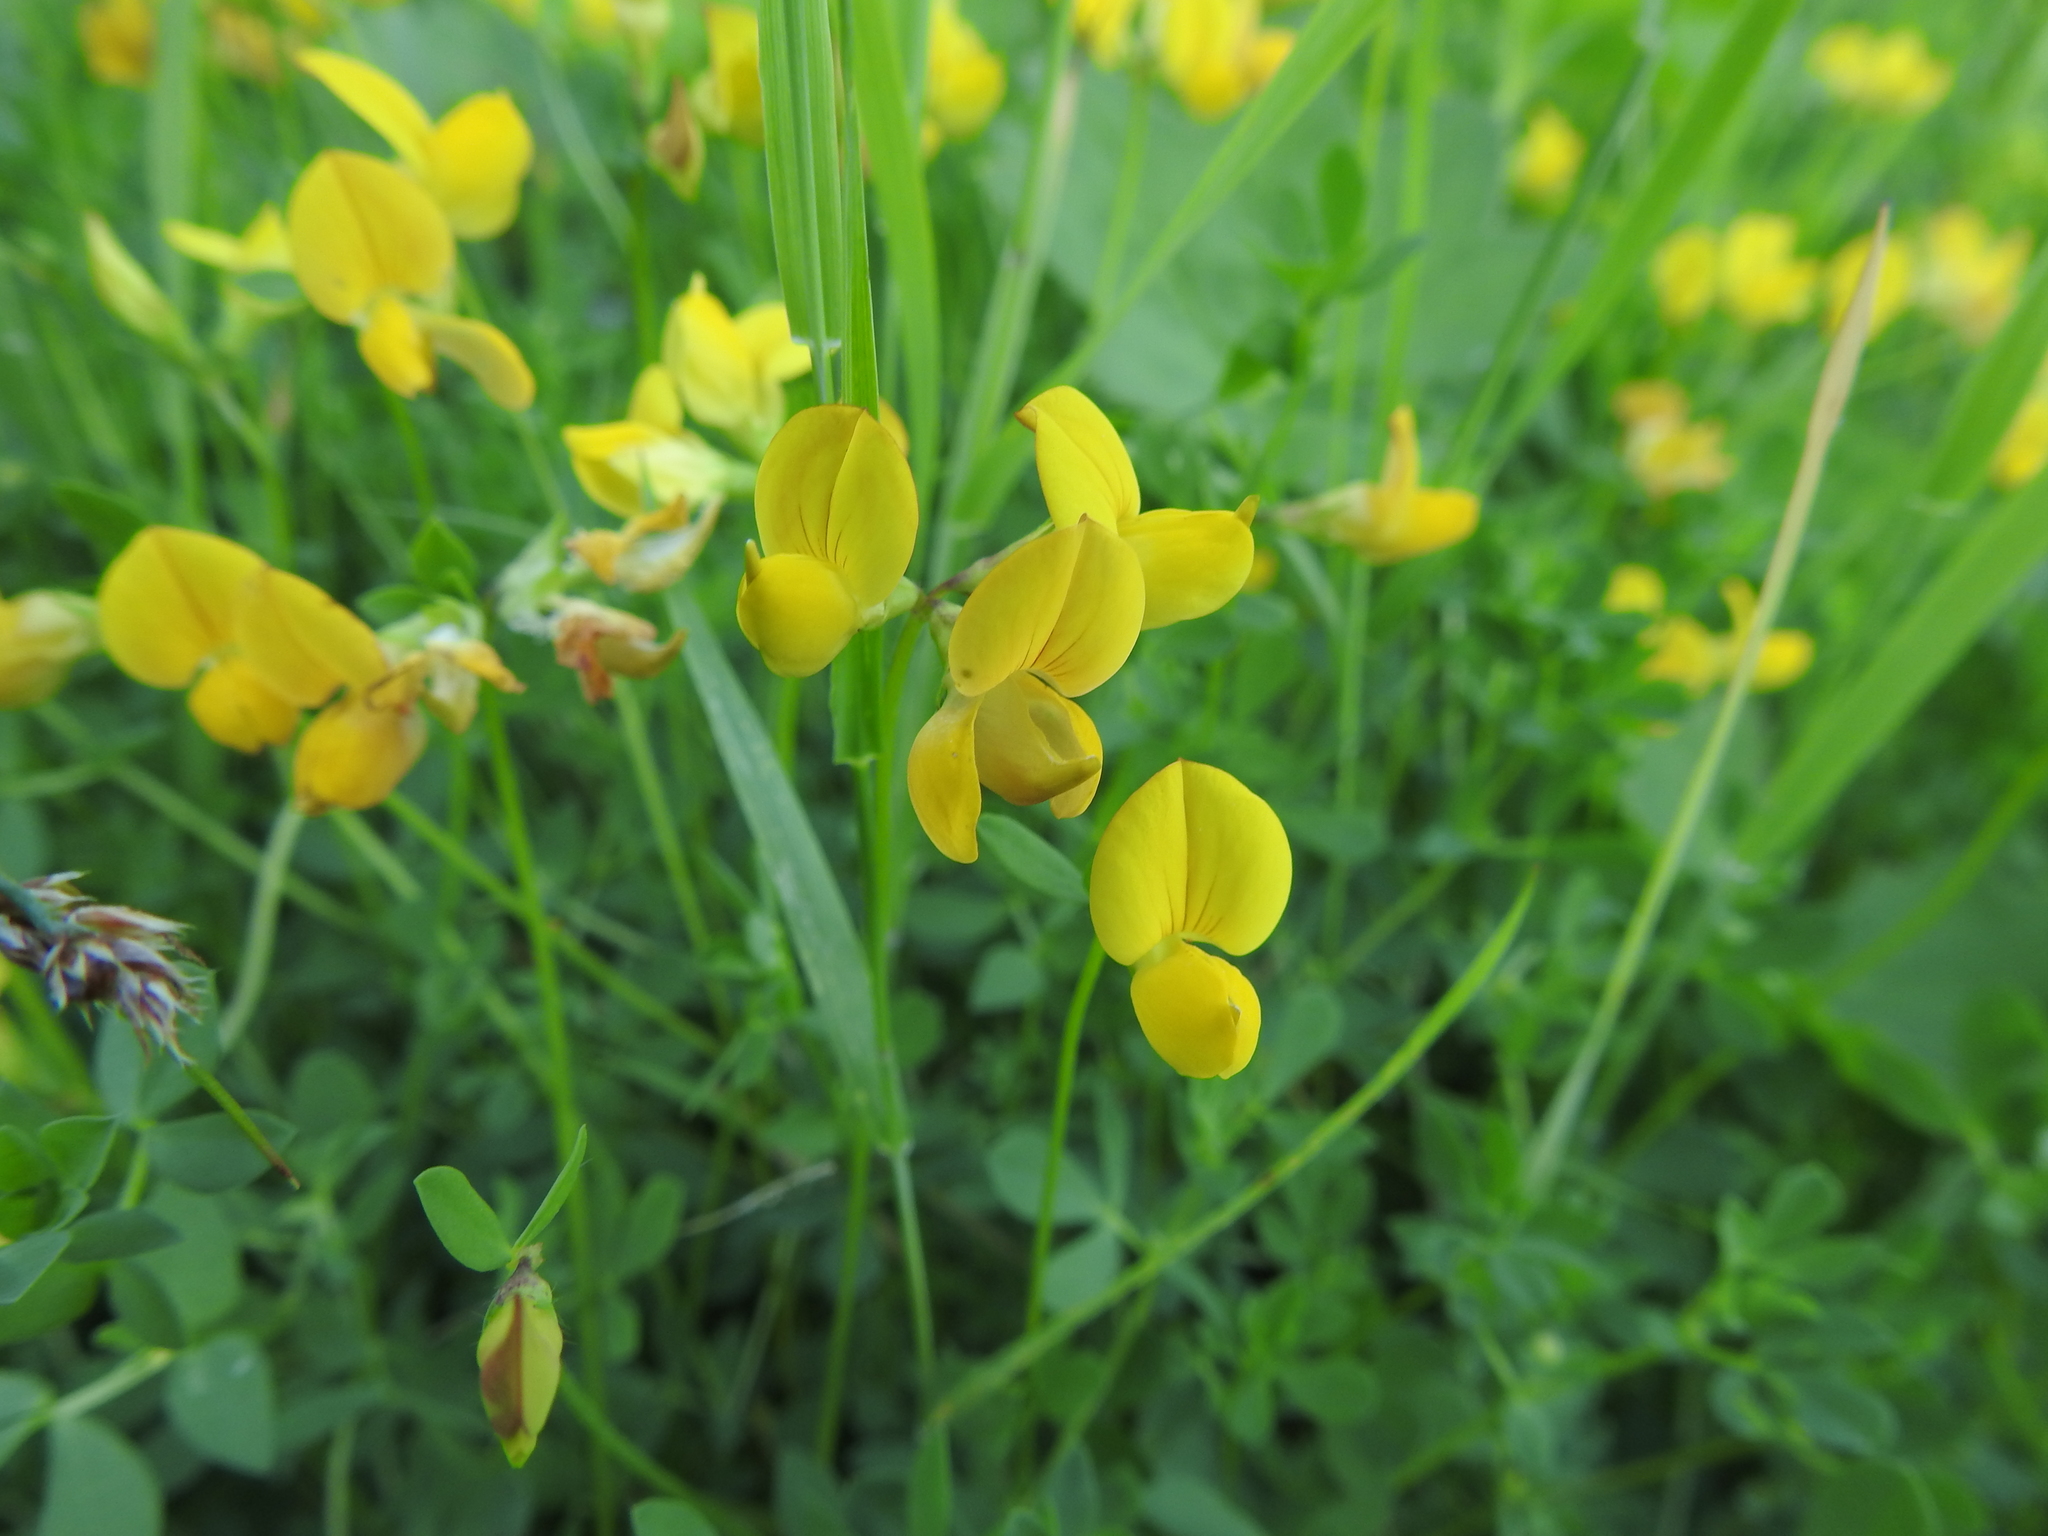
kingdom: Plantae
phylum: Tracheophyta
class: Magnoliopsida
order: Fabales
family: Fabaceae
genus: Lotus
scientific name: Lotus corniculatus
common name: Common bird's-foot-trefoil
